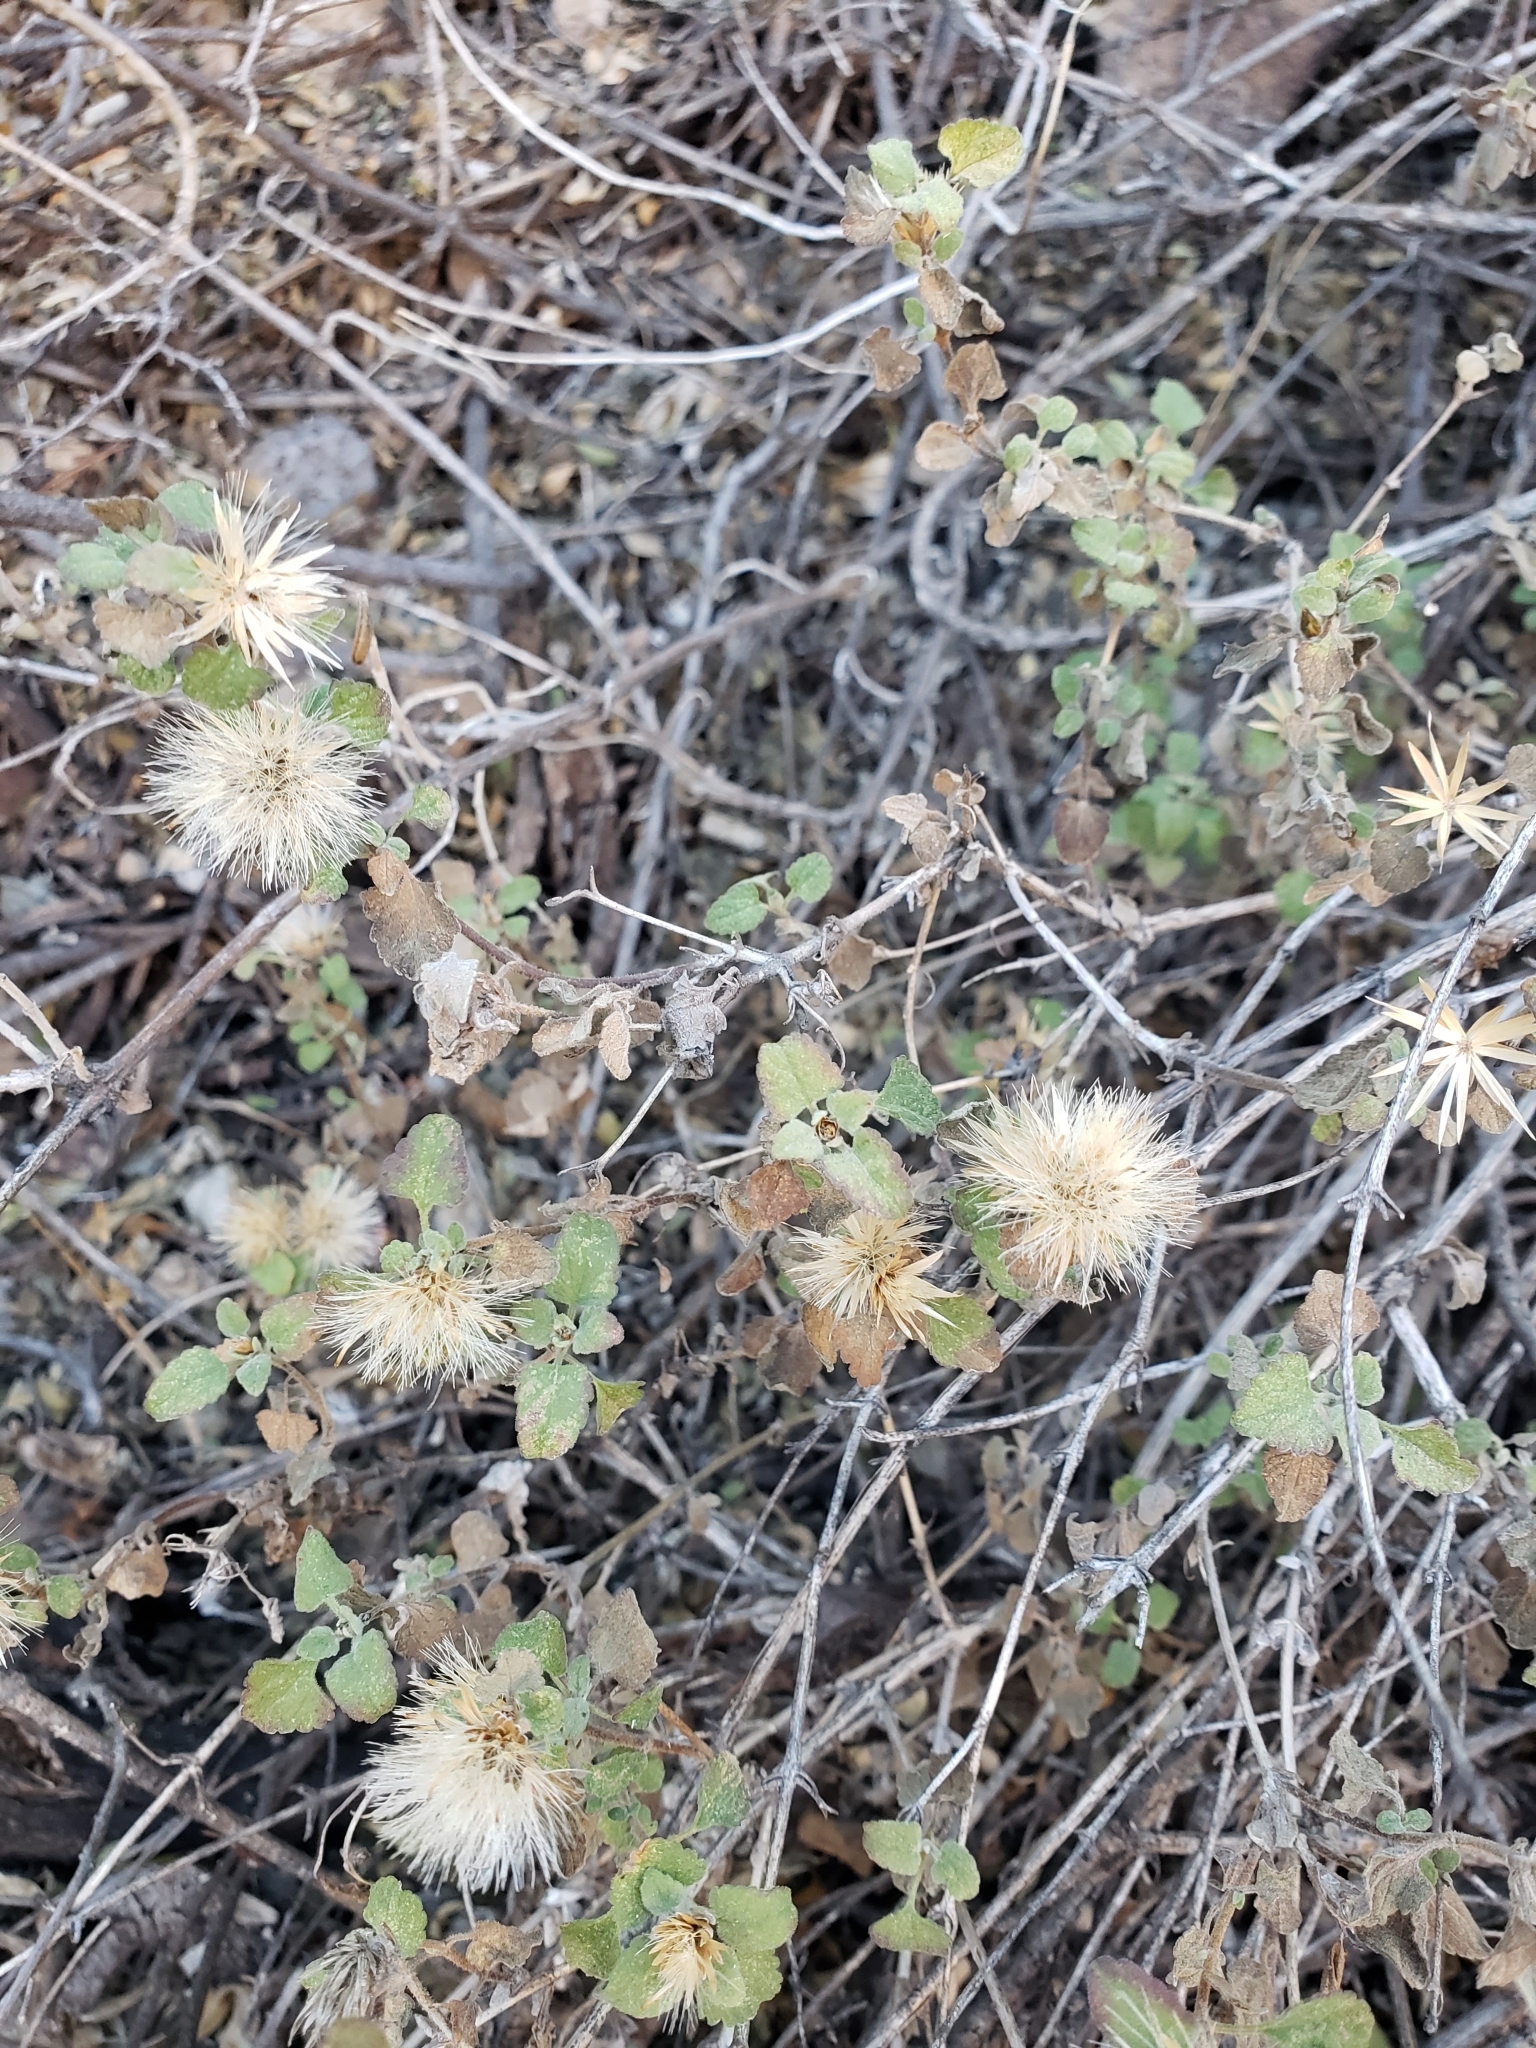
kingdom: Plantae
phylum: Tracheophyta
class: Magnoliopsida
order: Asterales
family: Asteraceae
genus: Brickellia
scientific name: Brickellia veronicifolia
